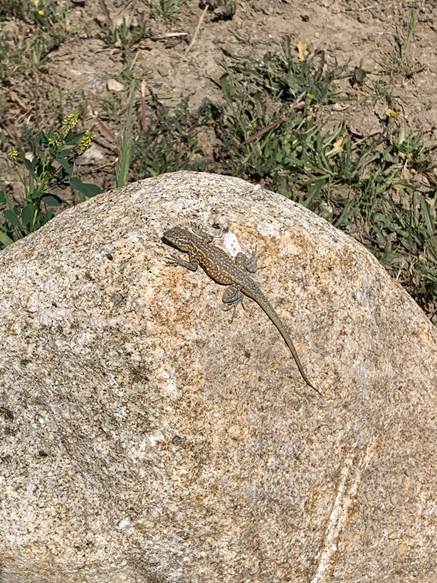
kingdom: Animalia
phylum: Chordata
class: Squamata
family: Phrynosomatidae
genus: Uta
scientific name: Uta stansburiana
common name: Side-blotched lizard
